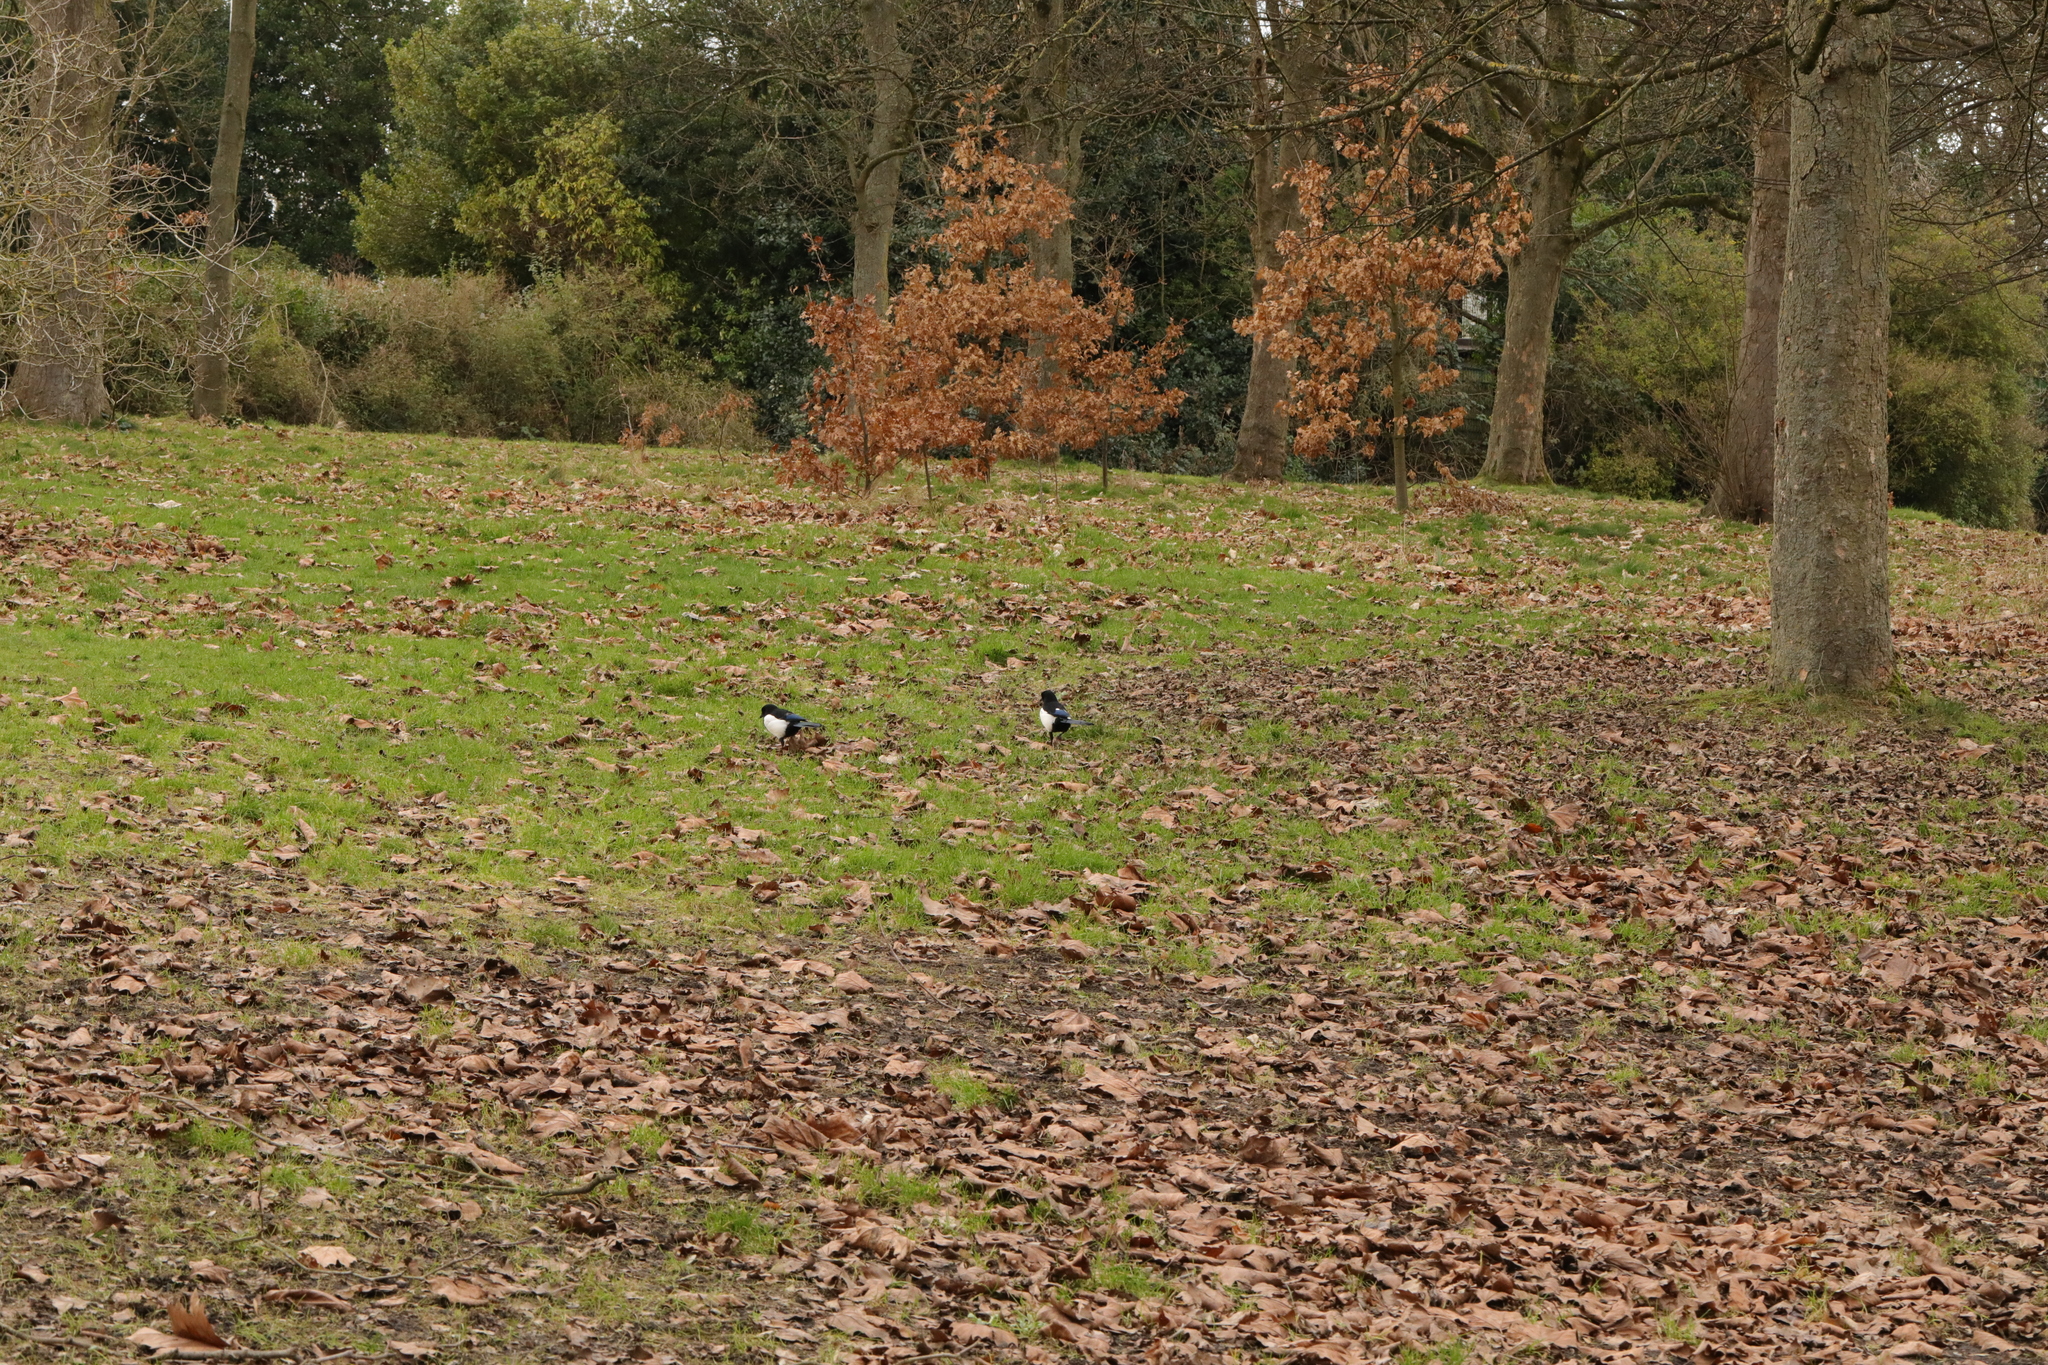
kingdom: Animalia
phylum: Chordata
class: Aves
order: Passeriformes
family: Corvidae
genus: Pica
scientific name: Pica pica
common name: Eurasian magpie
